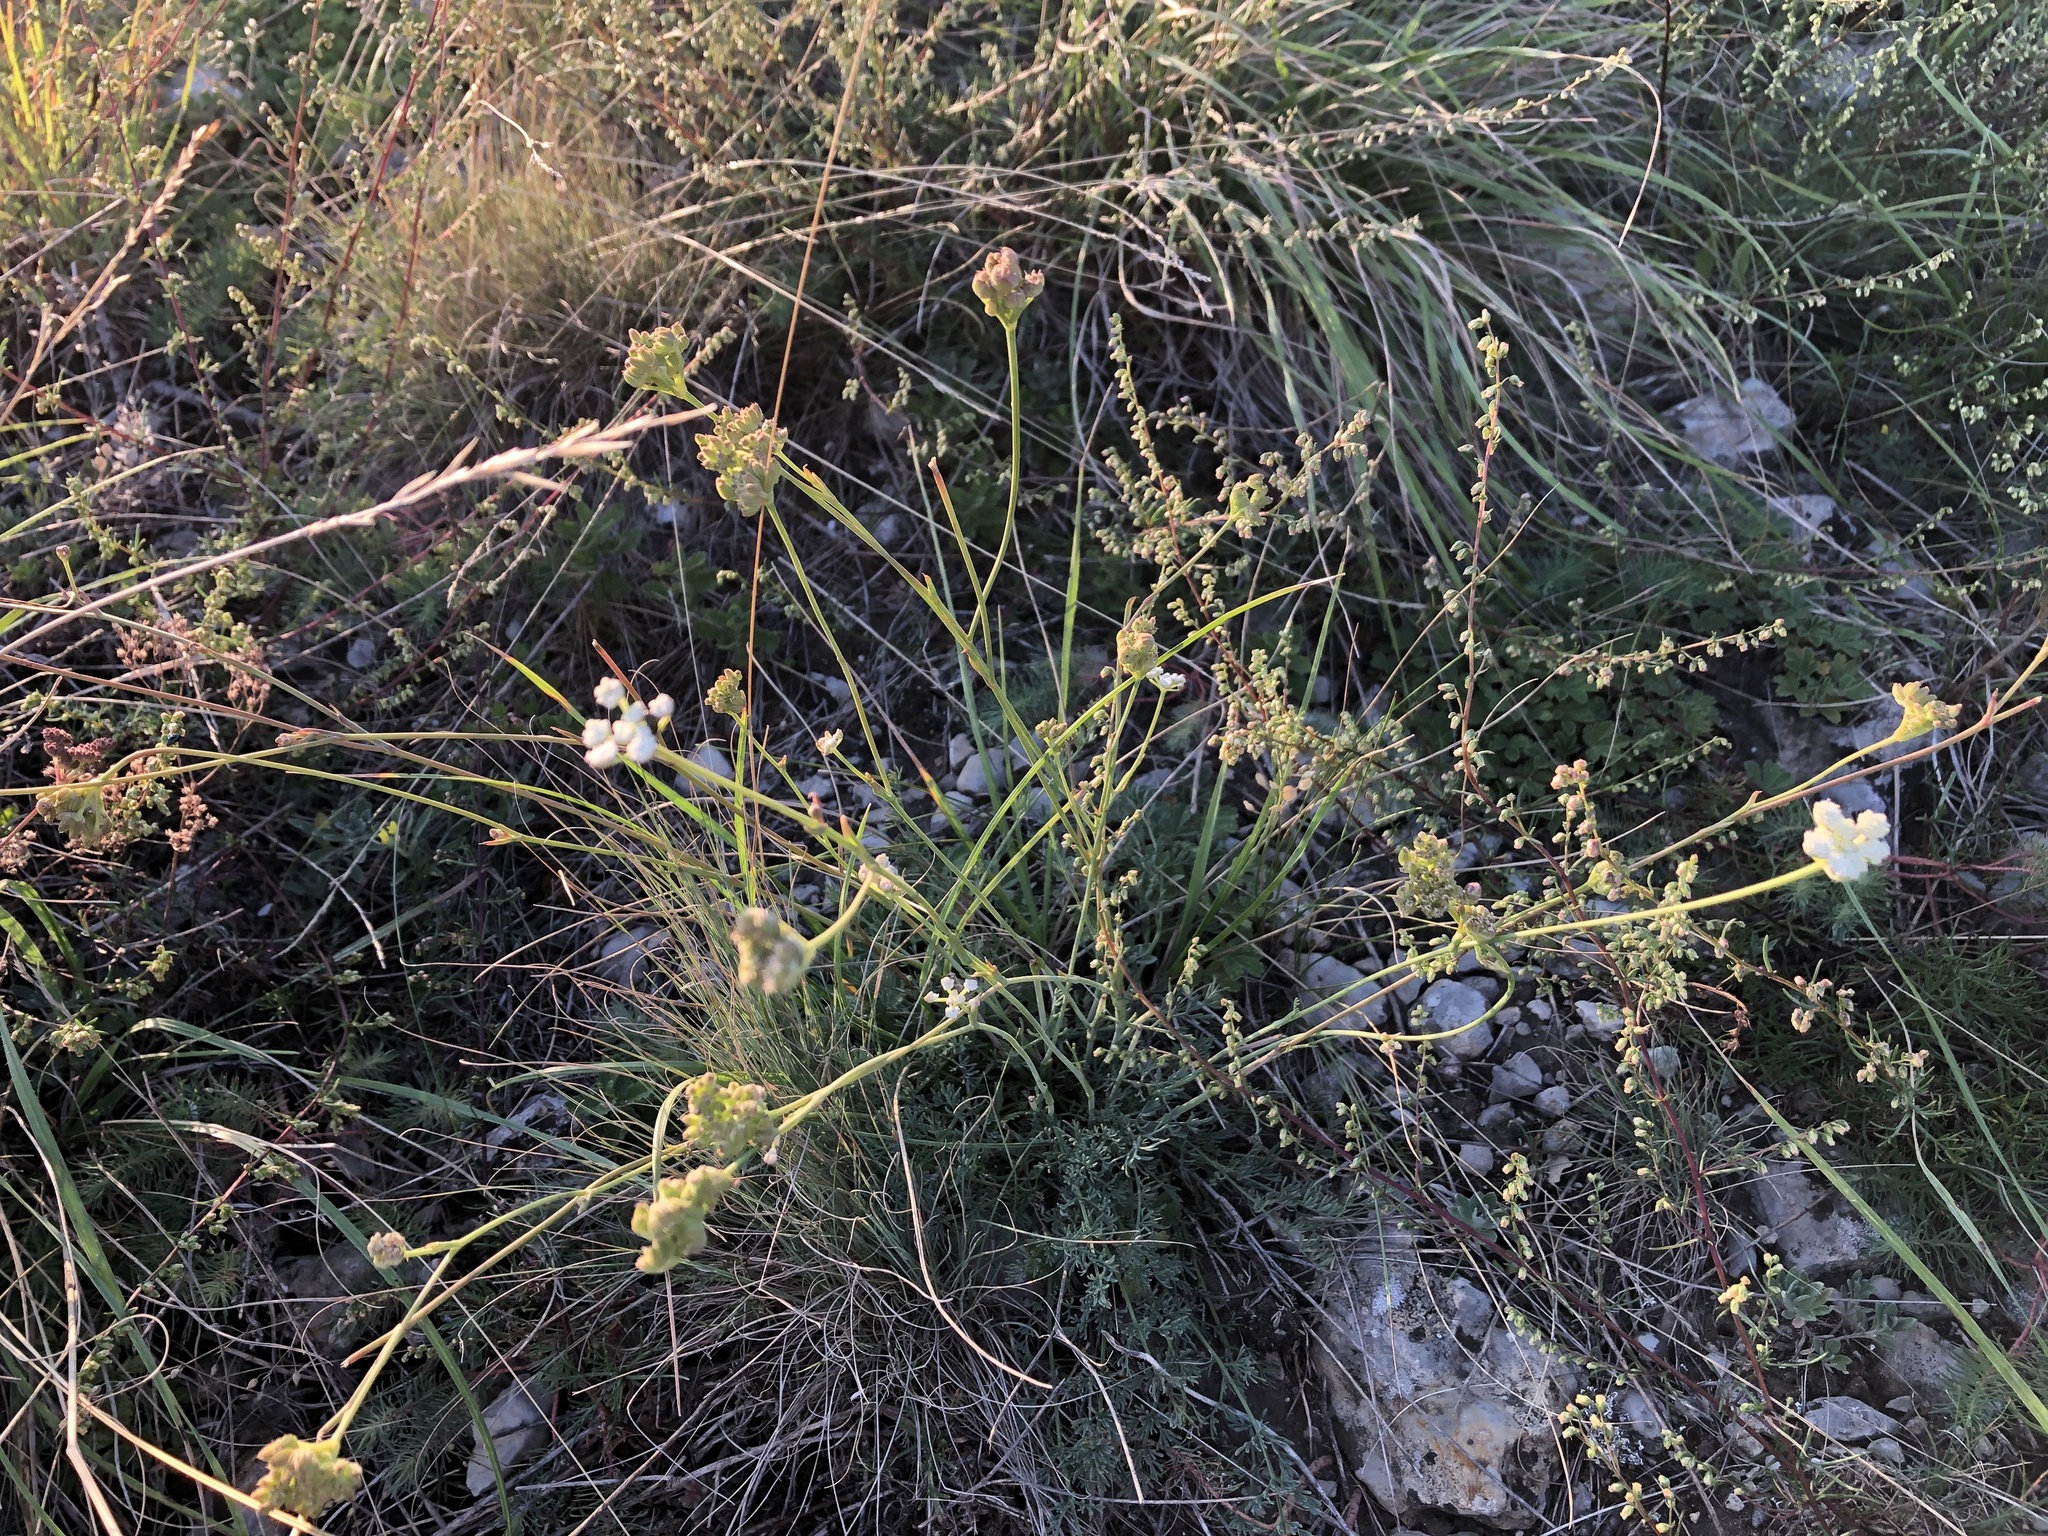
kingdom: Plantae
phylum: Tracheophyta
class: Magnoliopsida
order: Apiales
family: Apiaceae
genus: Hippomarathrum
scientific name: Hippomarathrum
